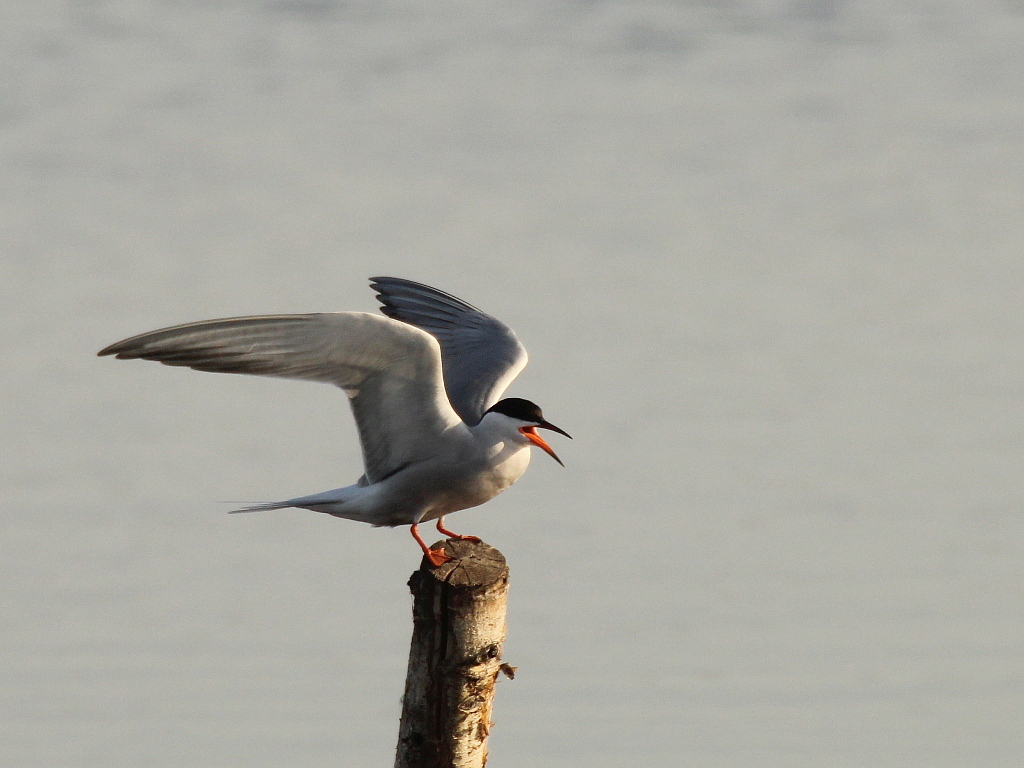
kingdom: Animalia
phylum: Chordata
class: Aves
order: Charadriiformes
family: Laridae
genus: Sterna
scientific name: Sterna hirundo
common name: Common tern
